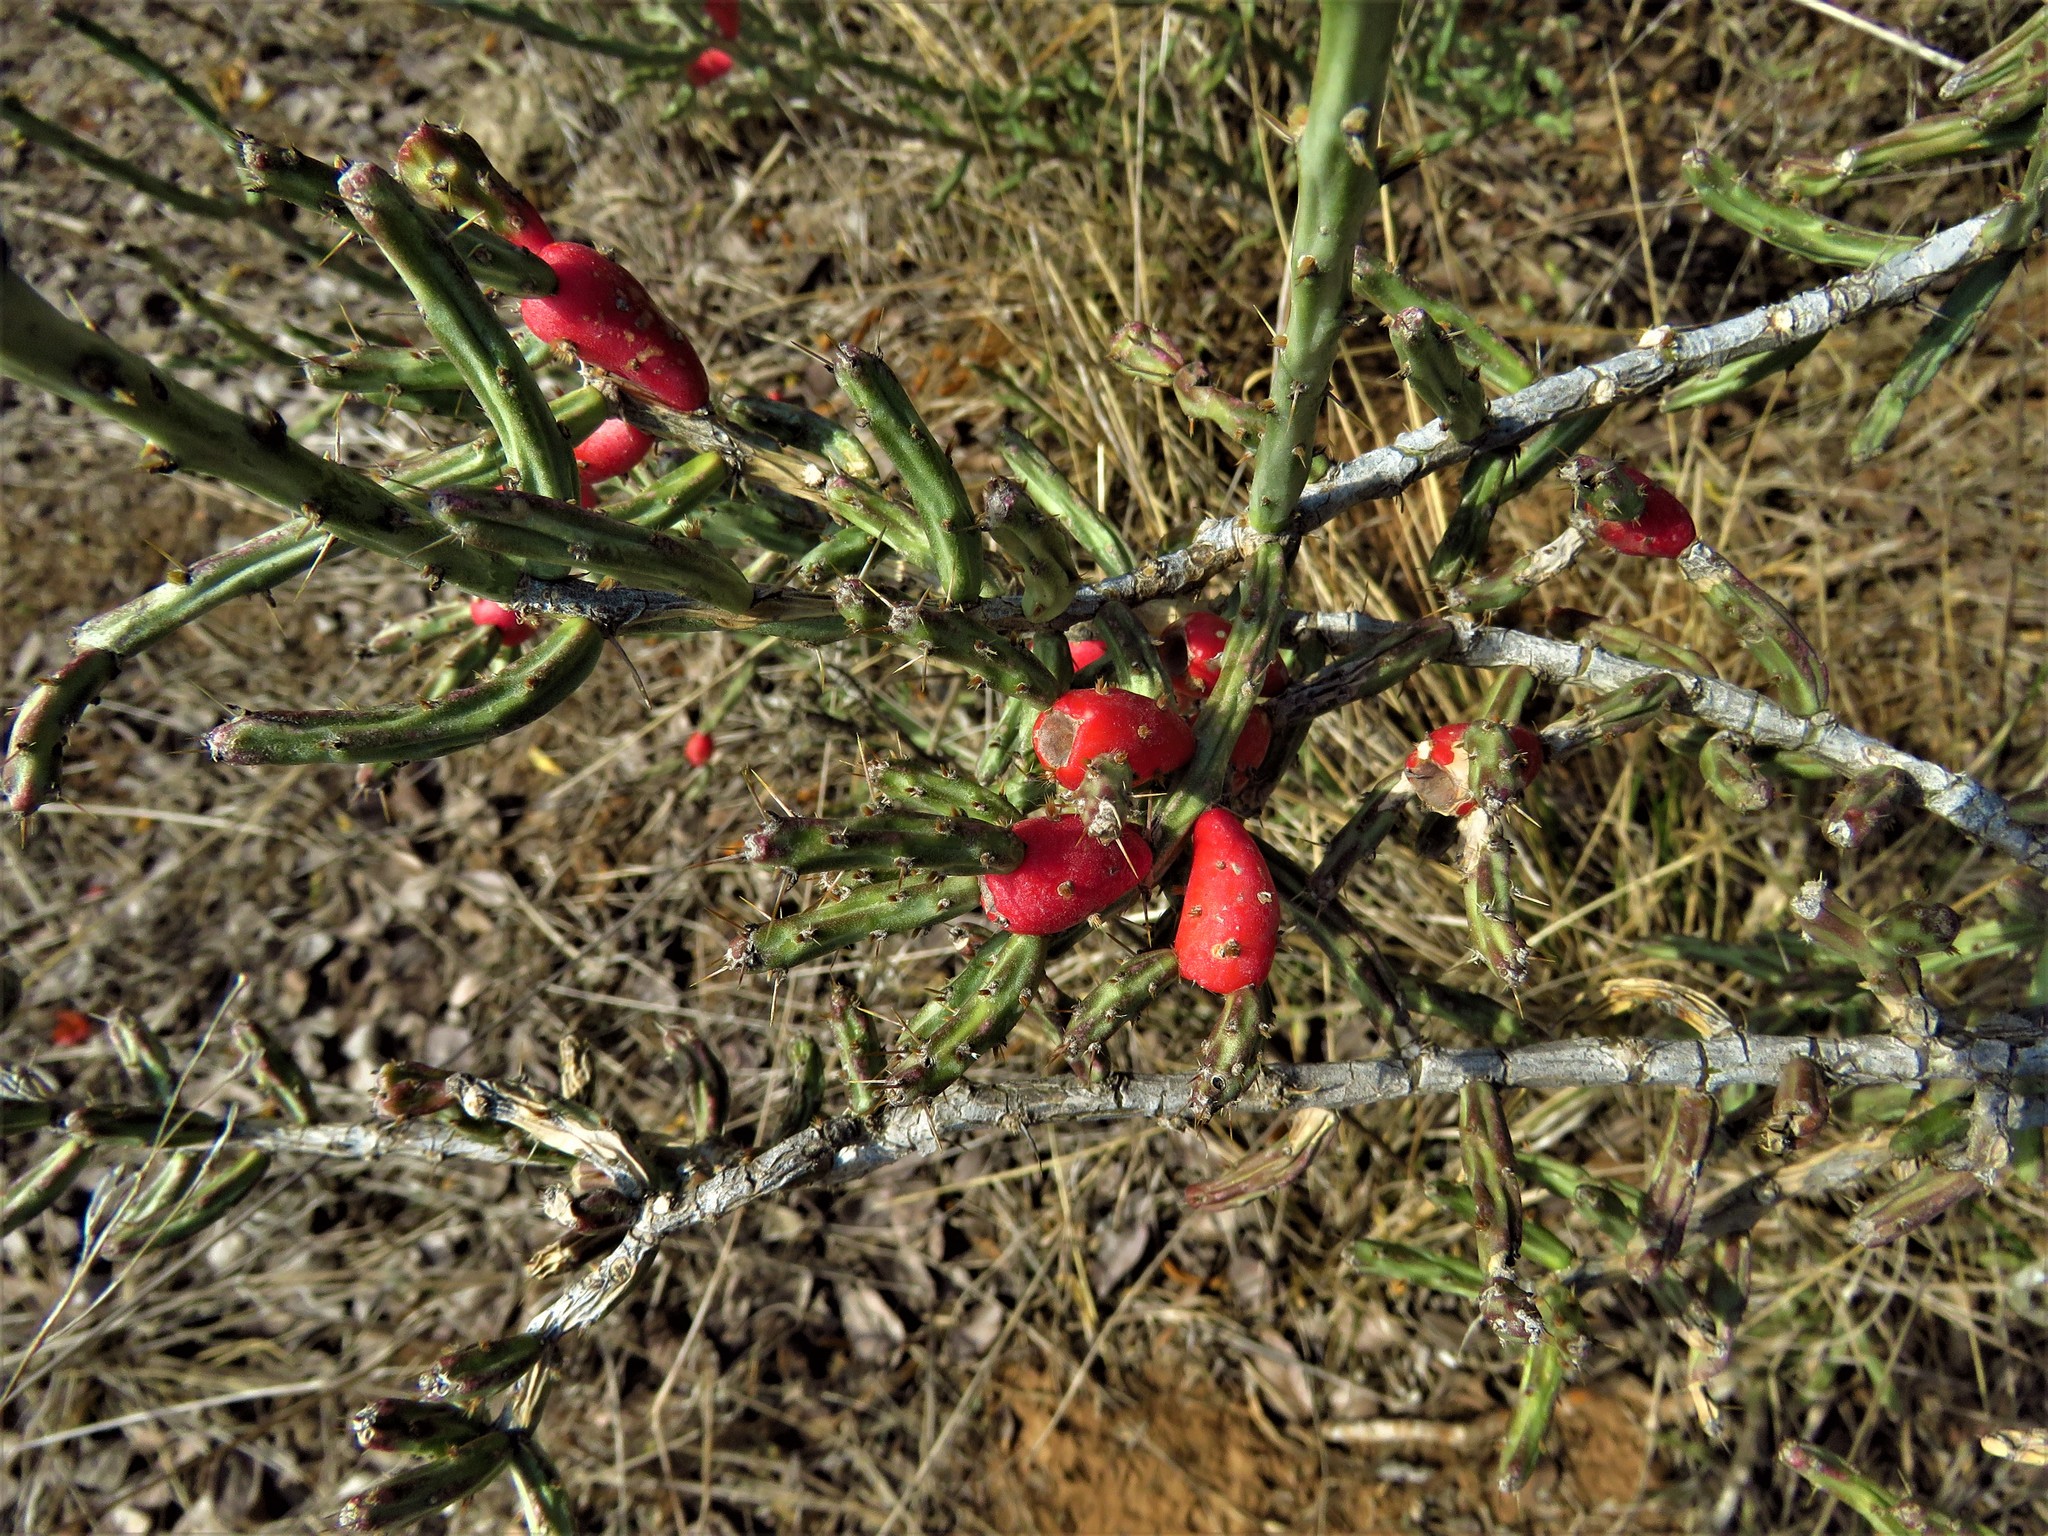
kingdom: Plantae
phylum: Tracheophyta
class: Magnoliopsida
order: Caryophyllales
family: Cactaceae
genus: Cylindropuntia
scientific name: Cylindropuntia leptocaulis
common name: Christmas cactus
